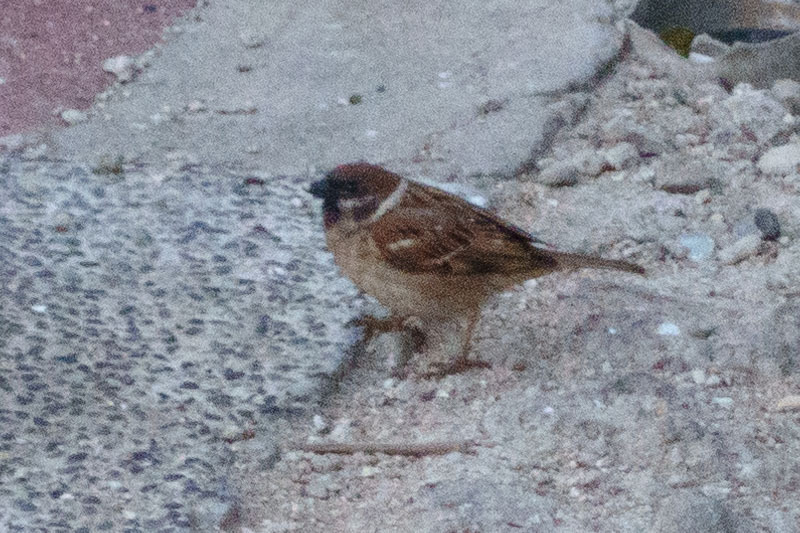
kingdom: Animalia
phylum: Chordata
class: Aves
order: Passeriformes
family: Passeridae
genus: Passer
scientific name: Passer montanus
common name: Eurasian tree sparrow
